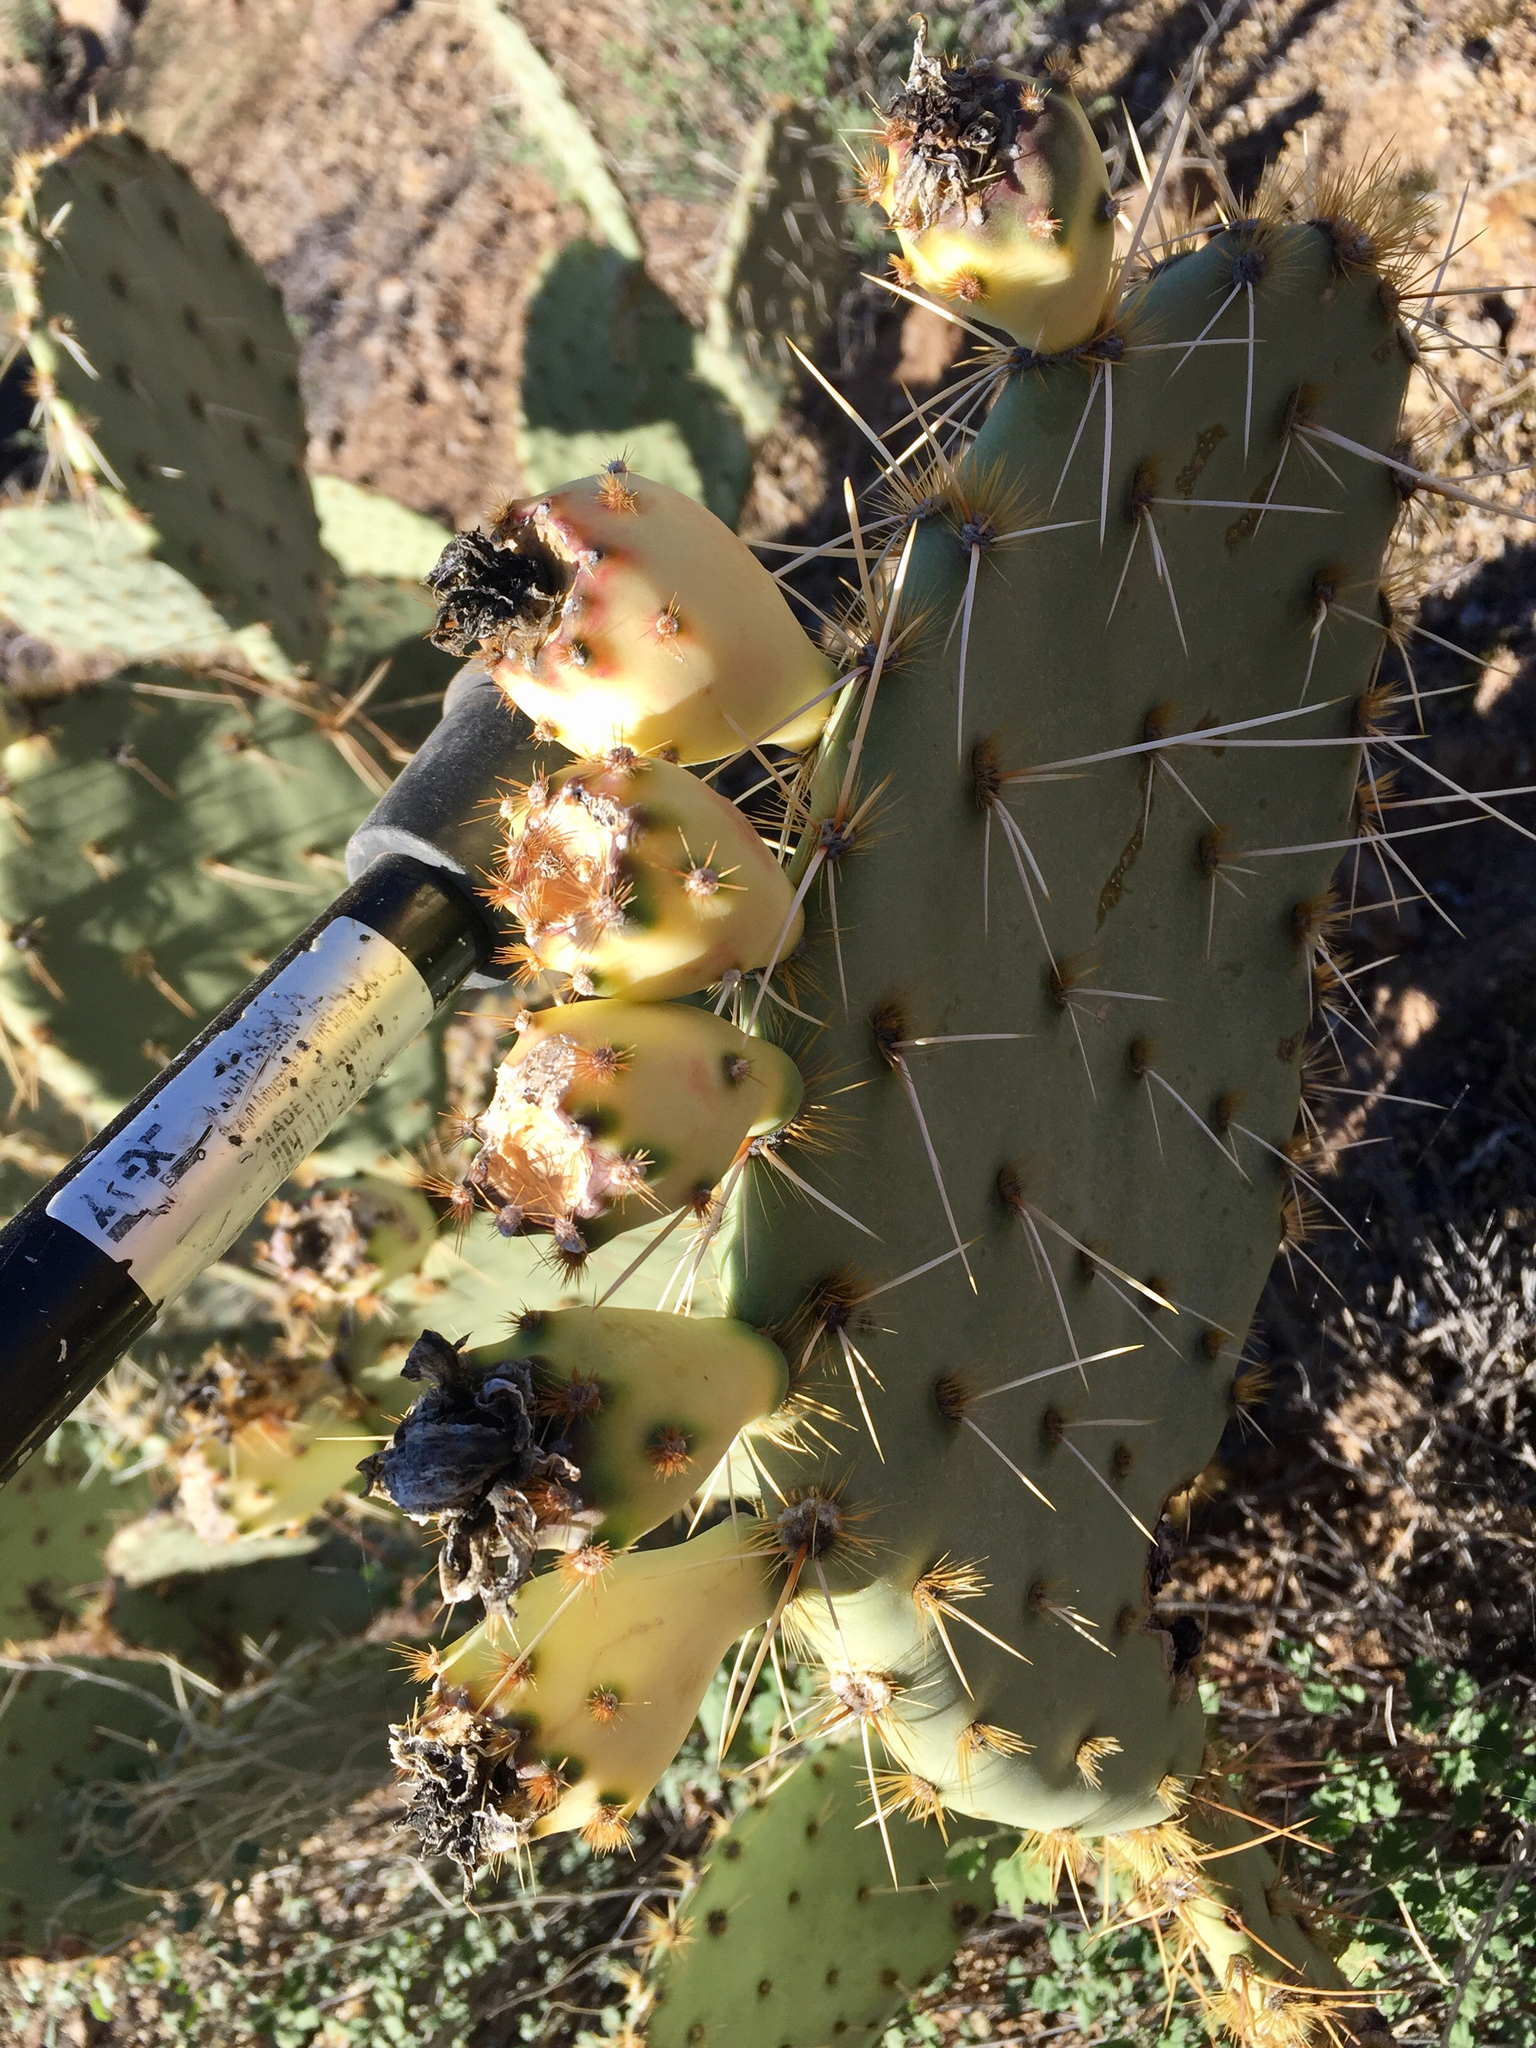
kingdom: Plantae
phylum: Tracheophyta
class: Magnoliopsida
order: Caryophyllales
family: Cactaceae
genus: Opuntia
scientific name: Opuntia engelmannii
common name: Cactus-apple
